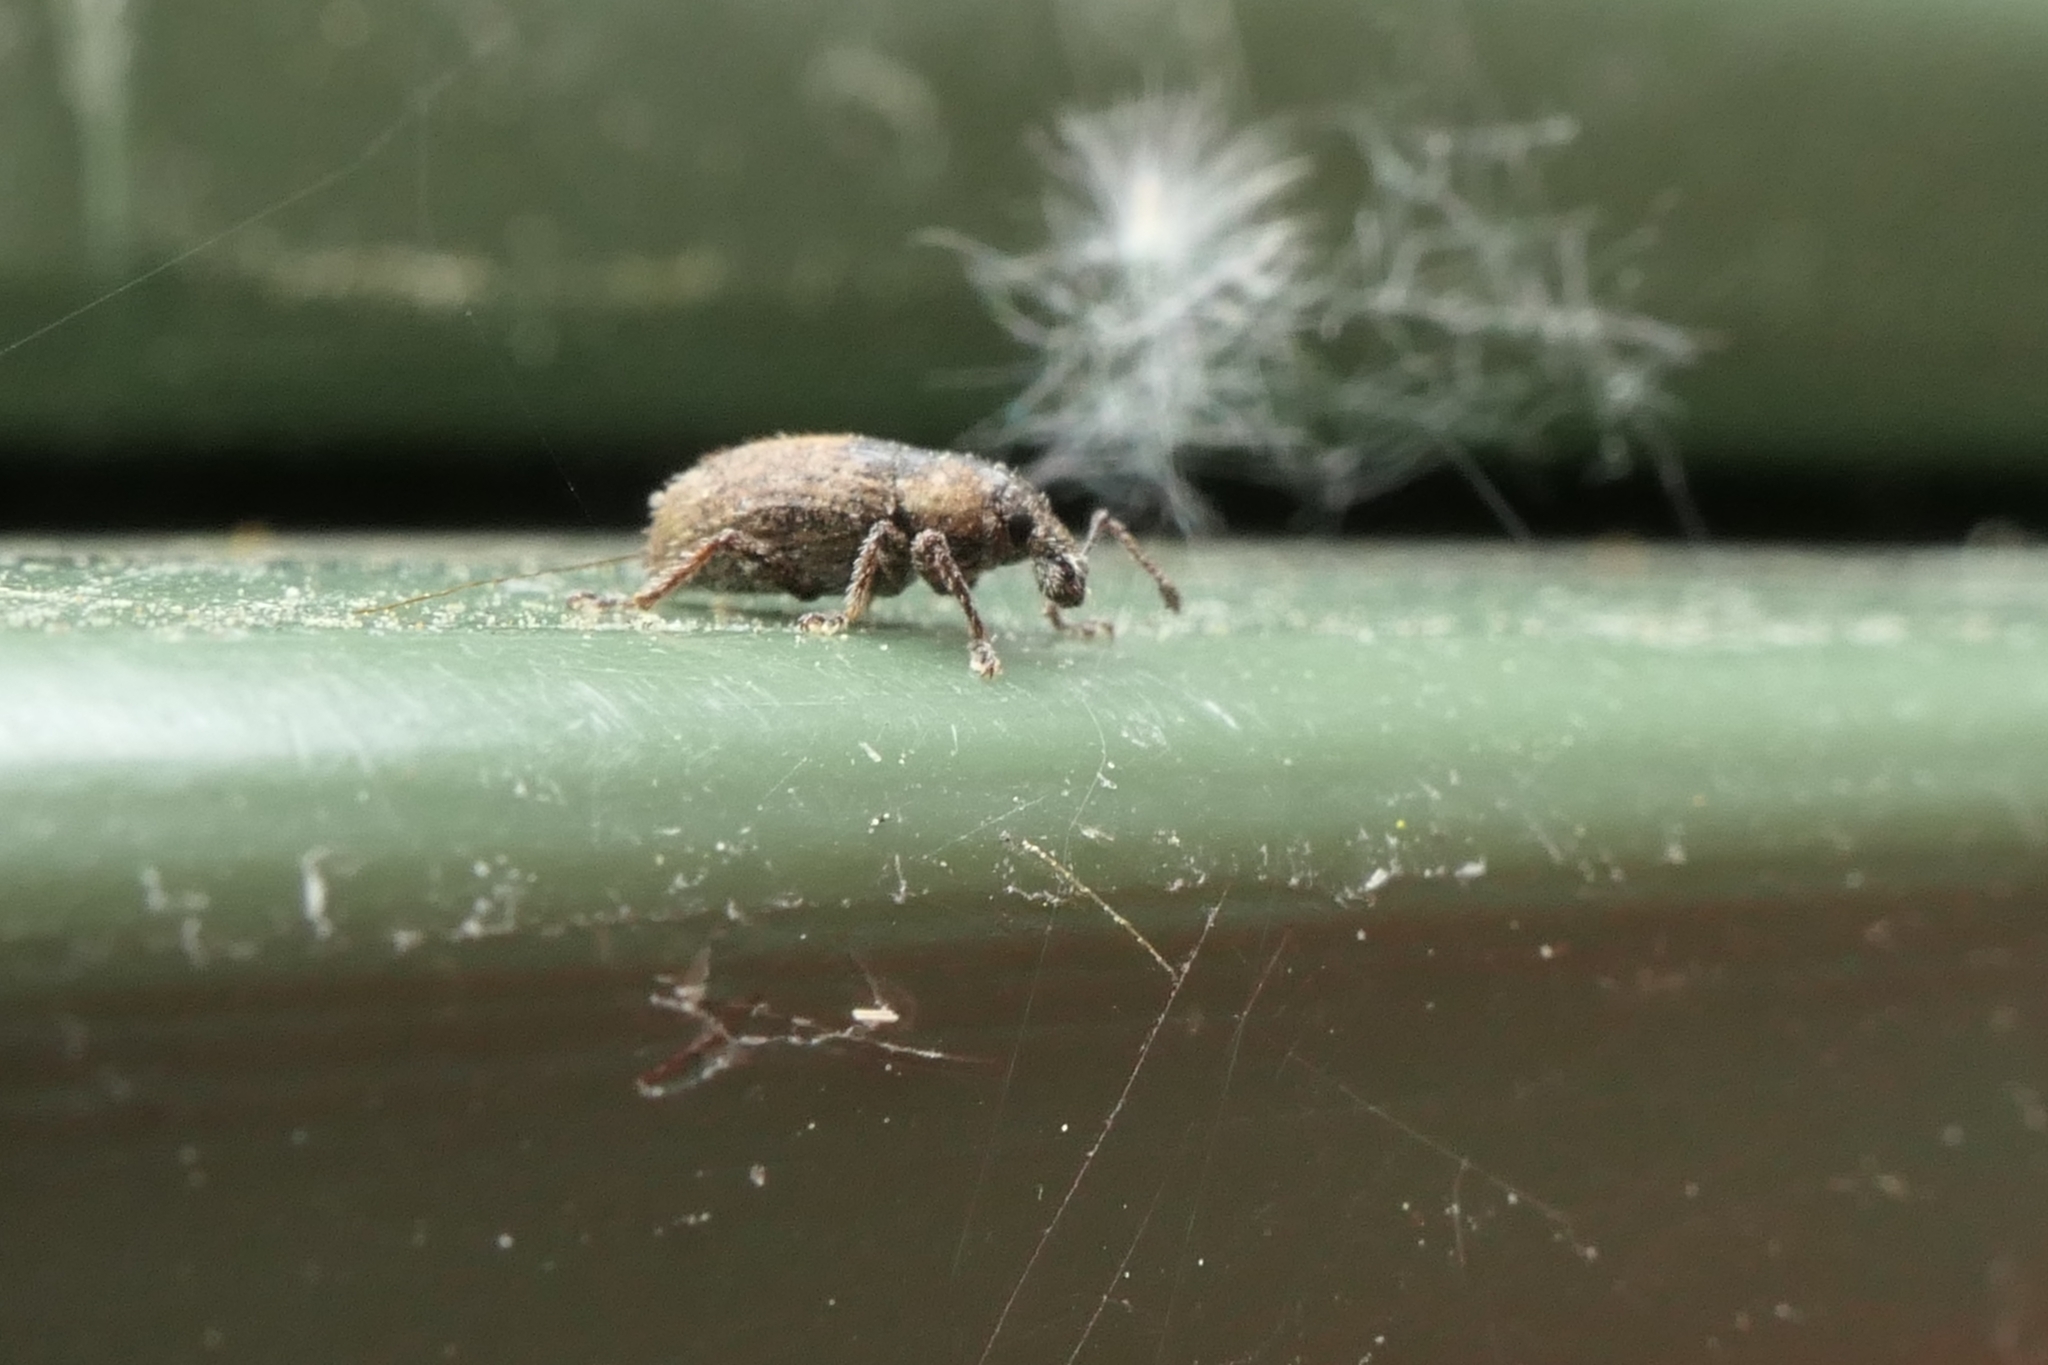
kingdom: Animalia
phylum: Arthropoda
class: Insecta
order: Coleoptera
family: Curculionidae
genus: Chalepistes
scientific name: Chalepistes aequalis
